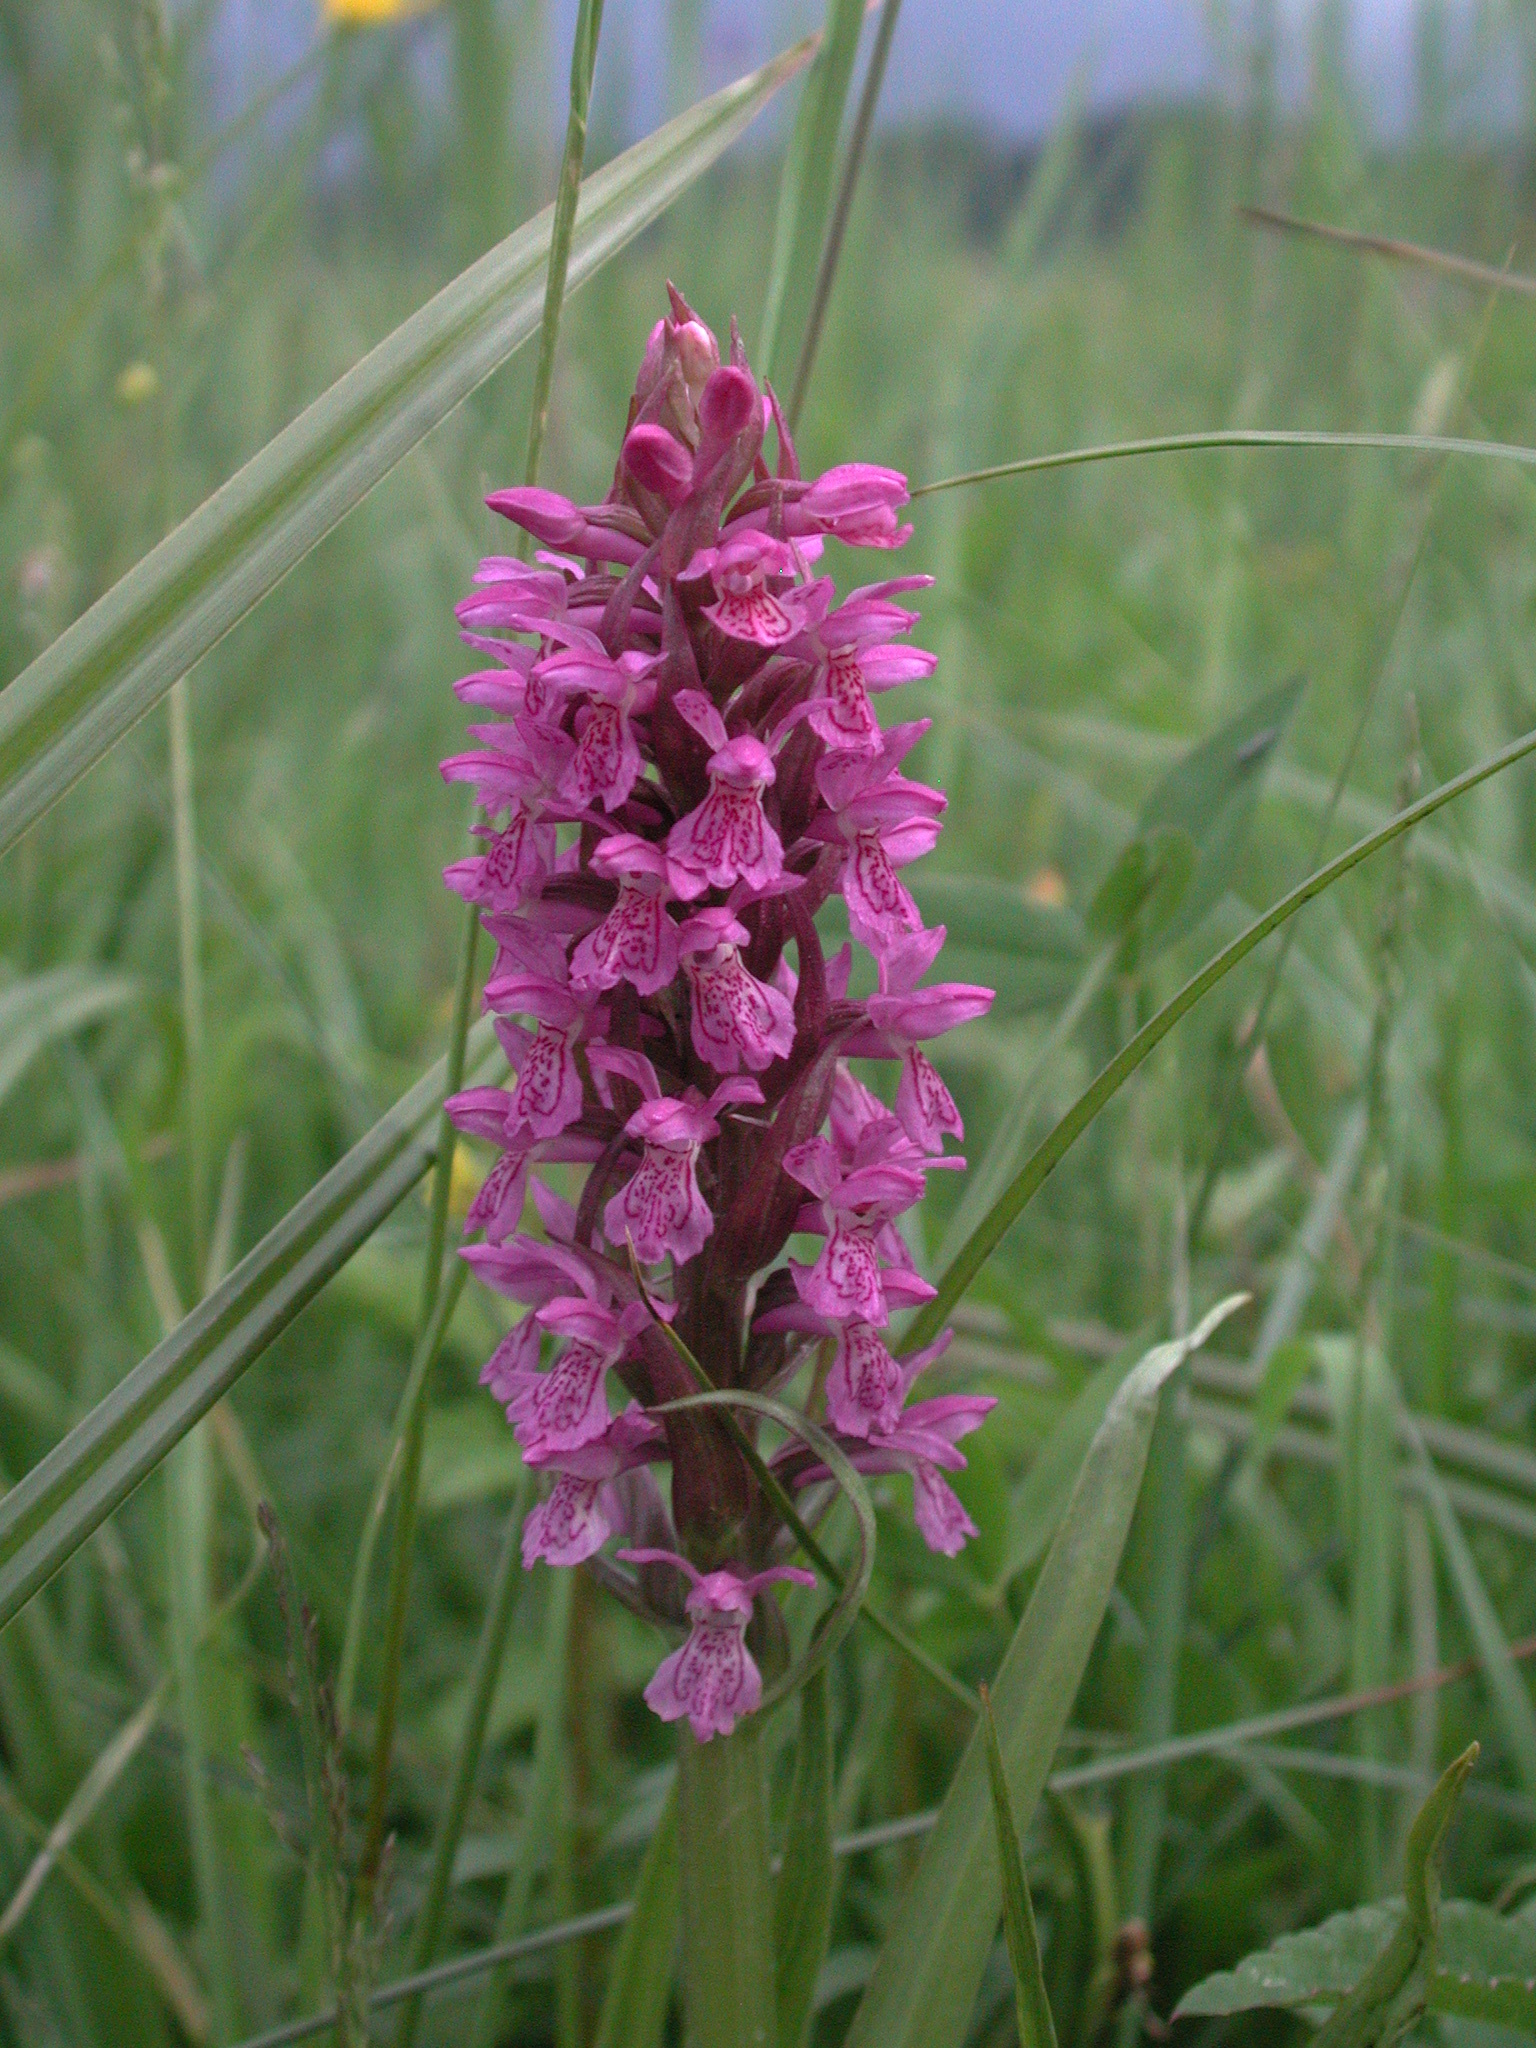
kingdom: Plantae
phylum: Tracheophyta
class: Liliopsida
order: Asparagales
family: Orchidaceae
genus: Dactylorhiza
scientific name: Dactylorhiza incarnata
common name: Early marsh-orchid
